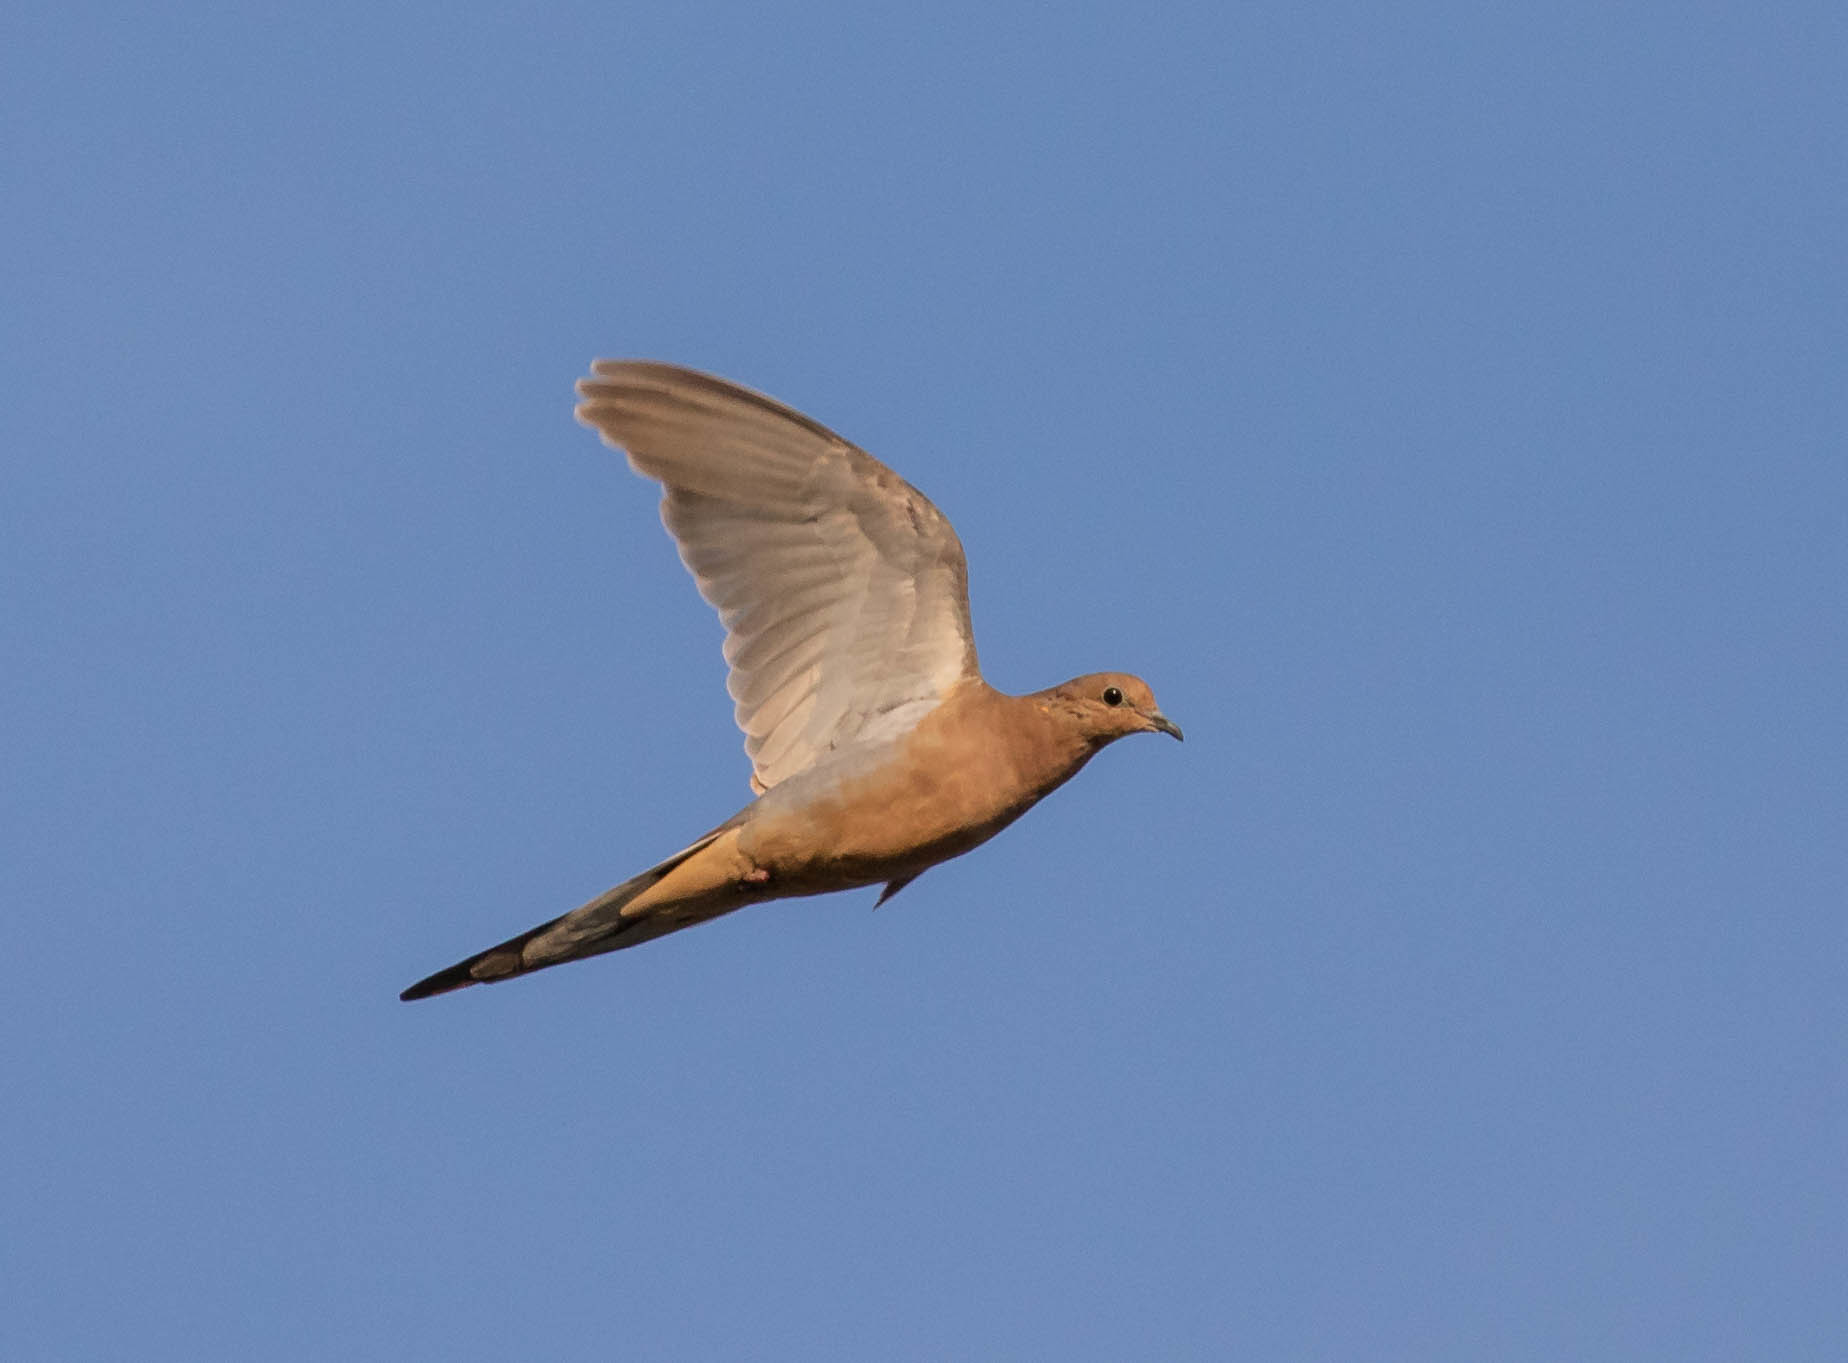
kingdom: Animalia
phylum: Chordata
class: Aves
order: Columbiformes
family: Columbidae
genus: Zenaida
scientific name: Zenaida macroura
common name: Mourning dove
